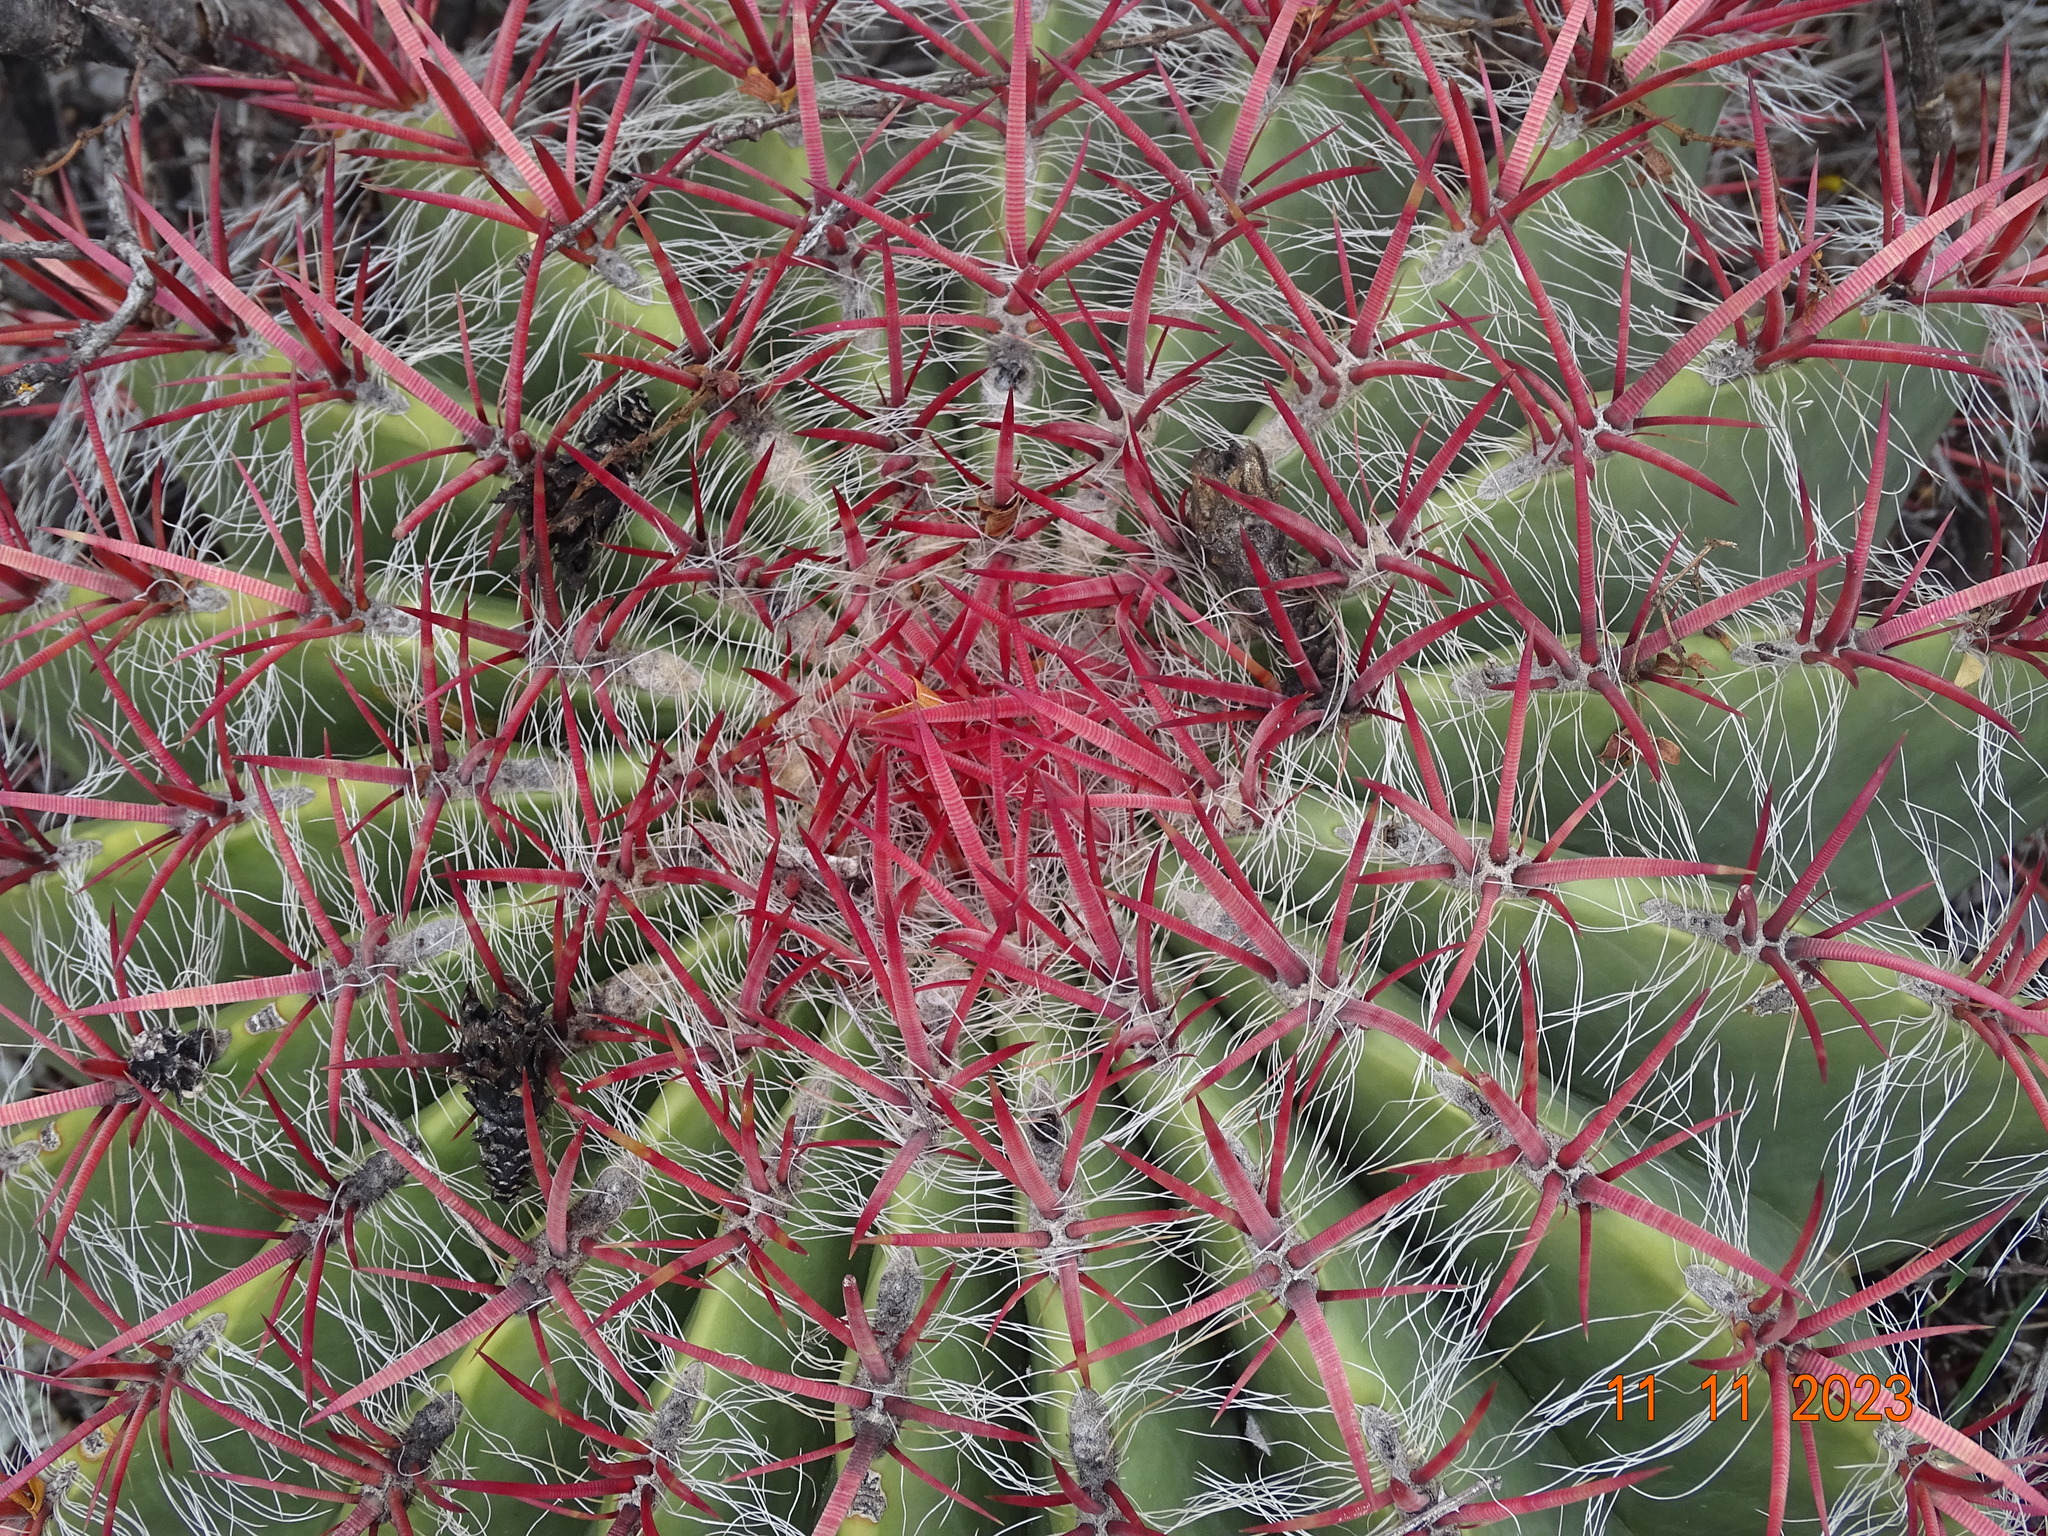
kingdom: Plantae
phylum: Tracheophyta
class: Magnoliopsida
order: Caryophyllales
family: Cactaceae
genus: Ferocactus
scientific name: Ferocactus pilosus
